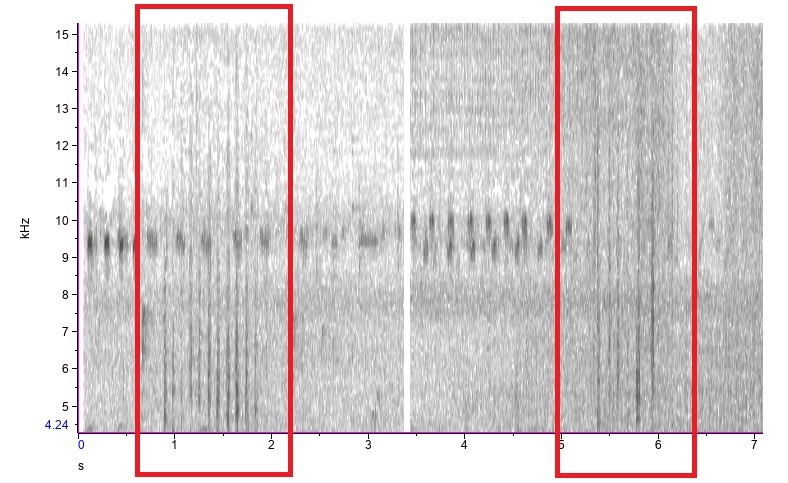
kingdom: Animalia
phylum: Chordata
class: Aves
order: Pelecaniformes
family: Ardeidae
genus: Butorides
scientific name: Butorides virescens
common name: Green heron
